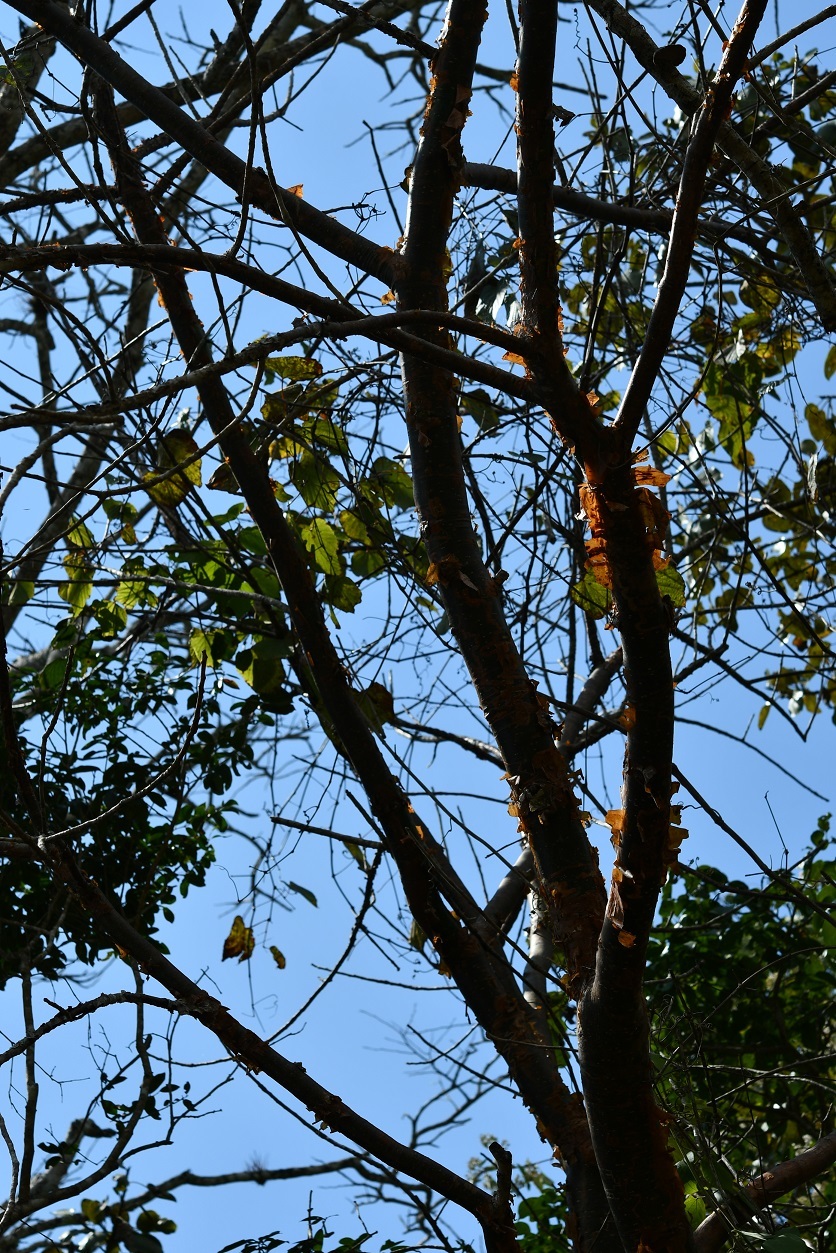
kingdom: Plantae
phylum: Tracheophyta
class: Magnoliopsida
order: Sapindales
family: Burseraceae
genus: Bursera
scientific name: Bursera simaruba
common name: Turpentine tree
